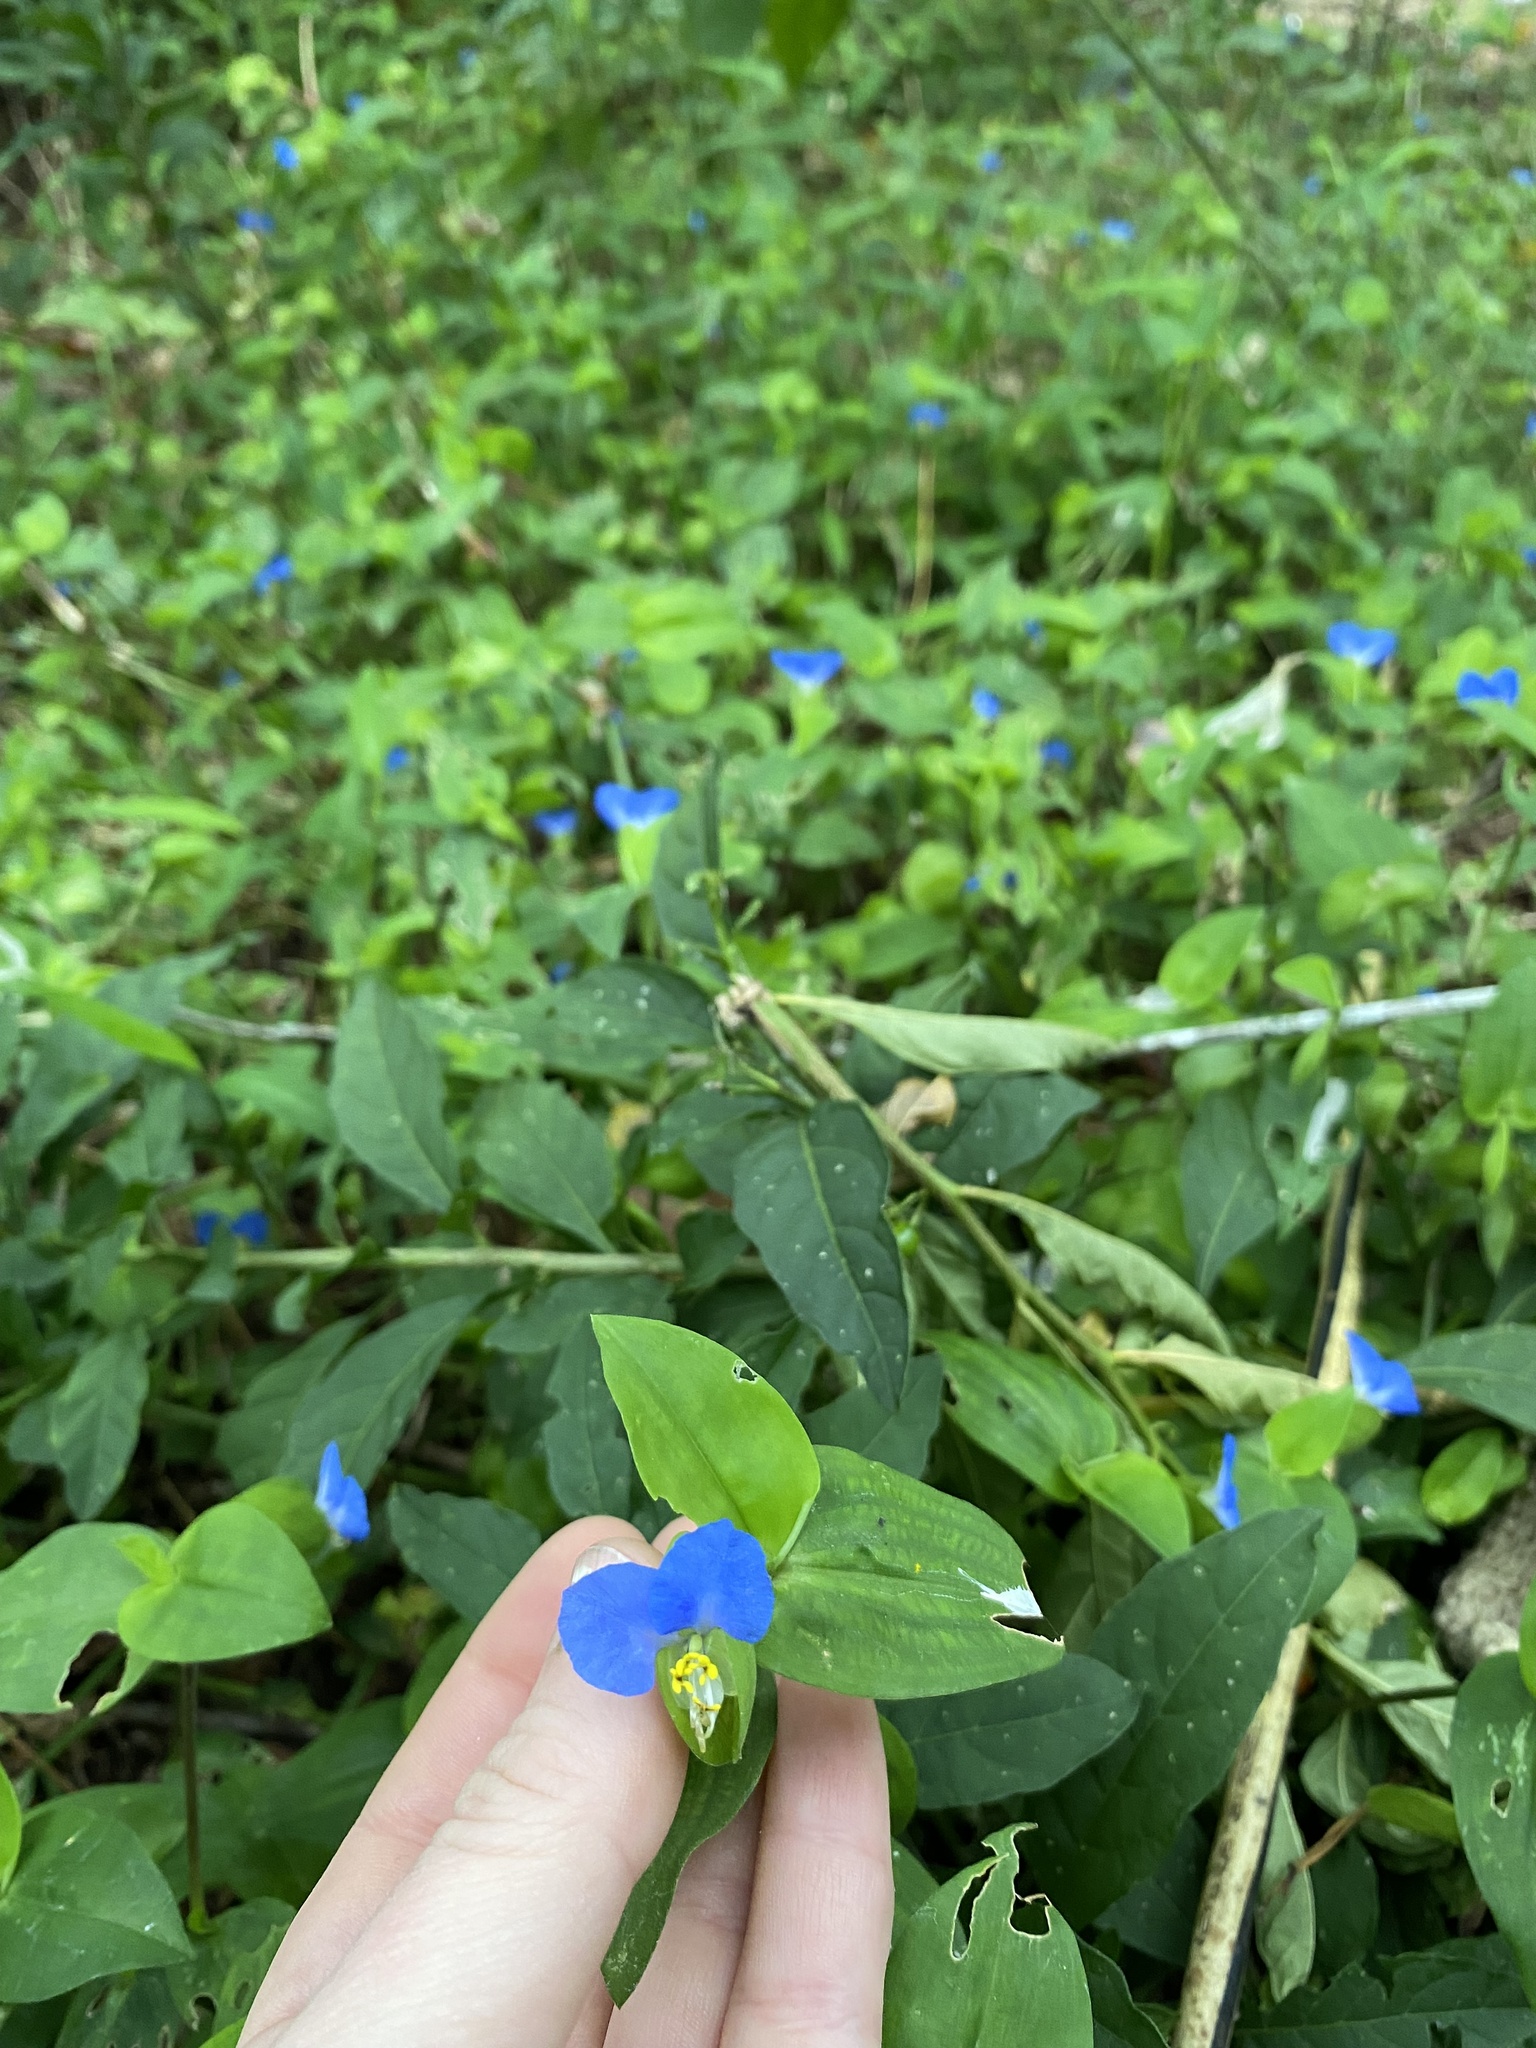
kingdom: Plantae
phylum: Tracheophyta
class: Liliopsida
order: Commelinales
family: Commelinaceae
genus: Commelina
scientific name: Commelina communis
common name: Asiatic dayflower
